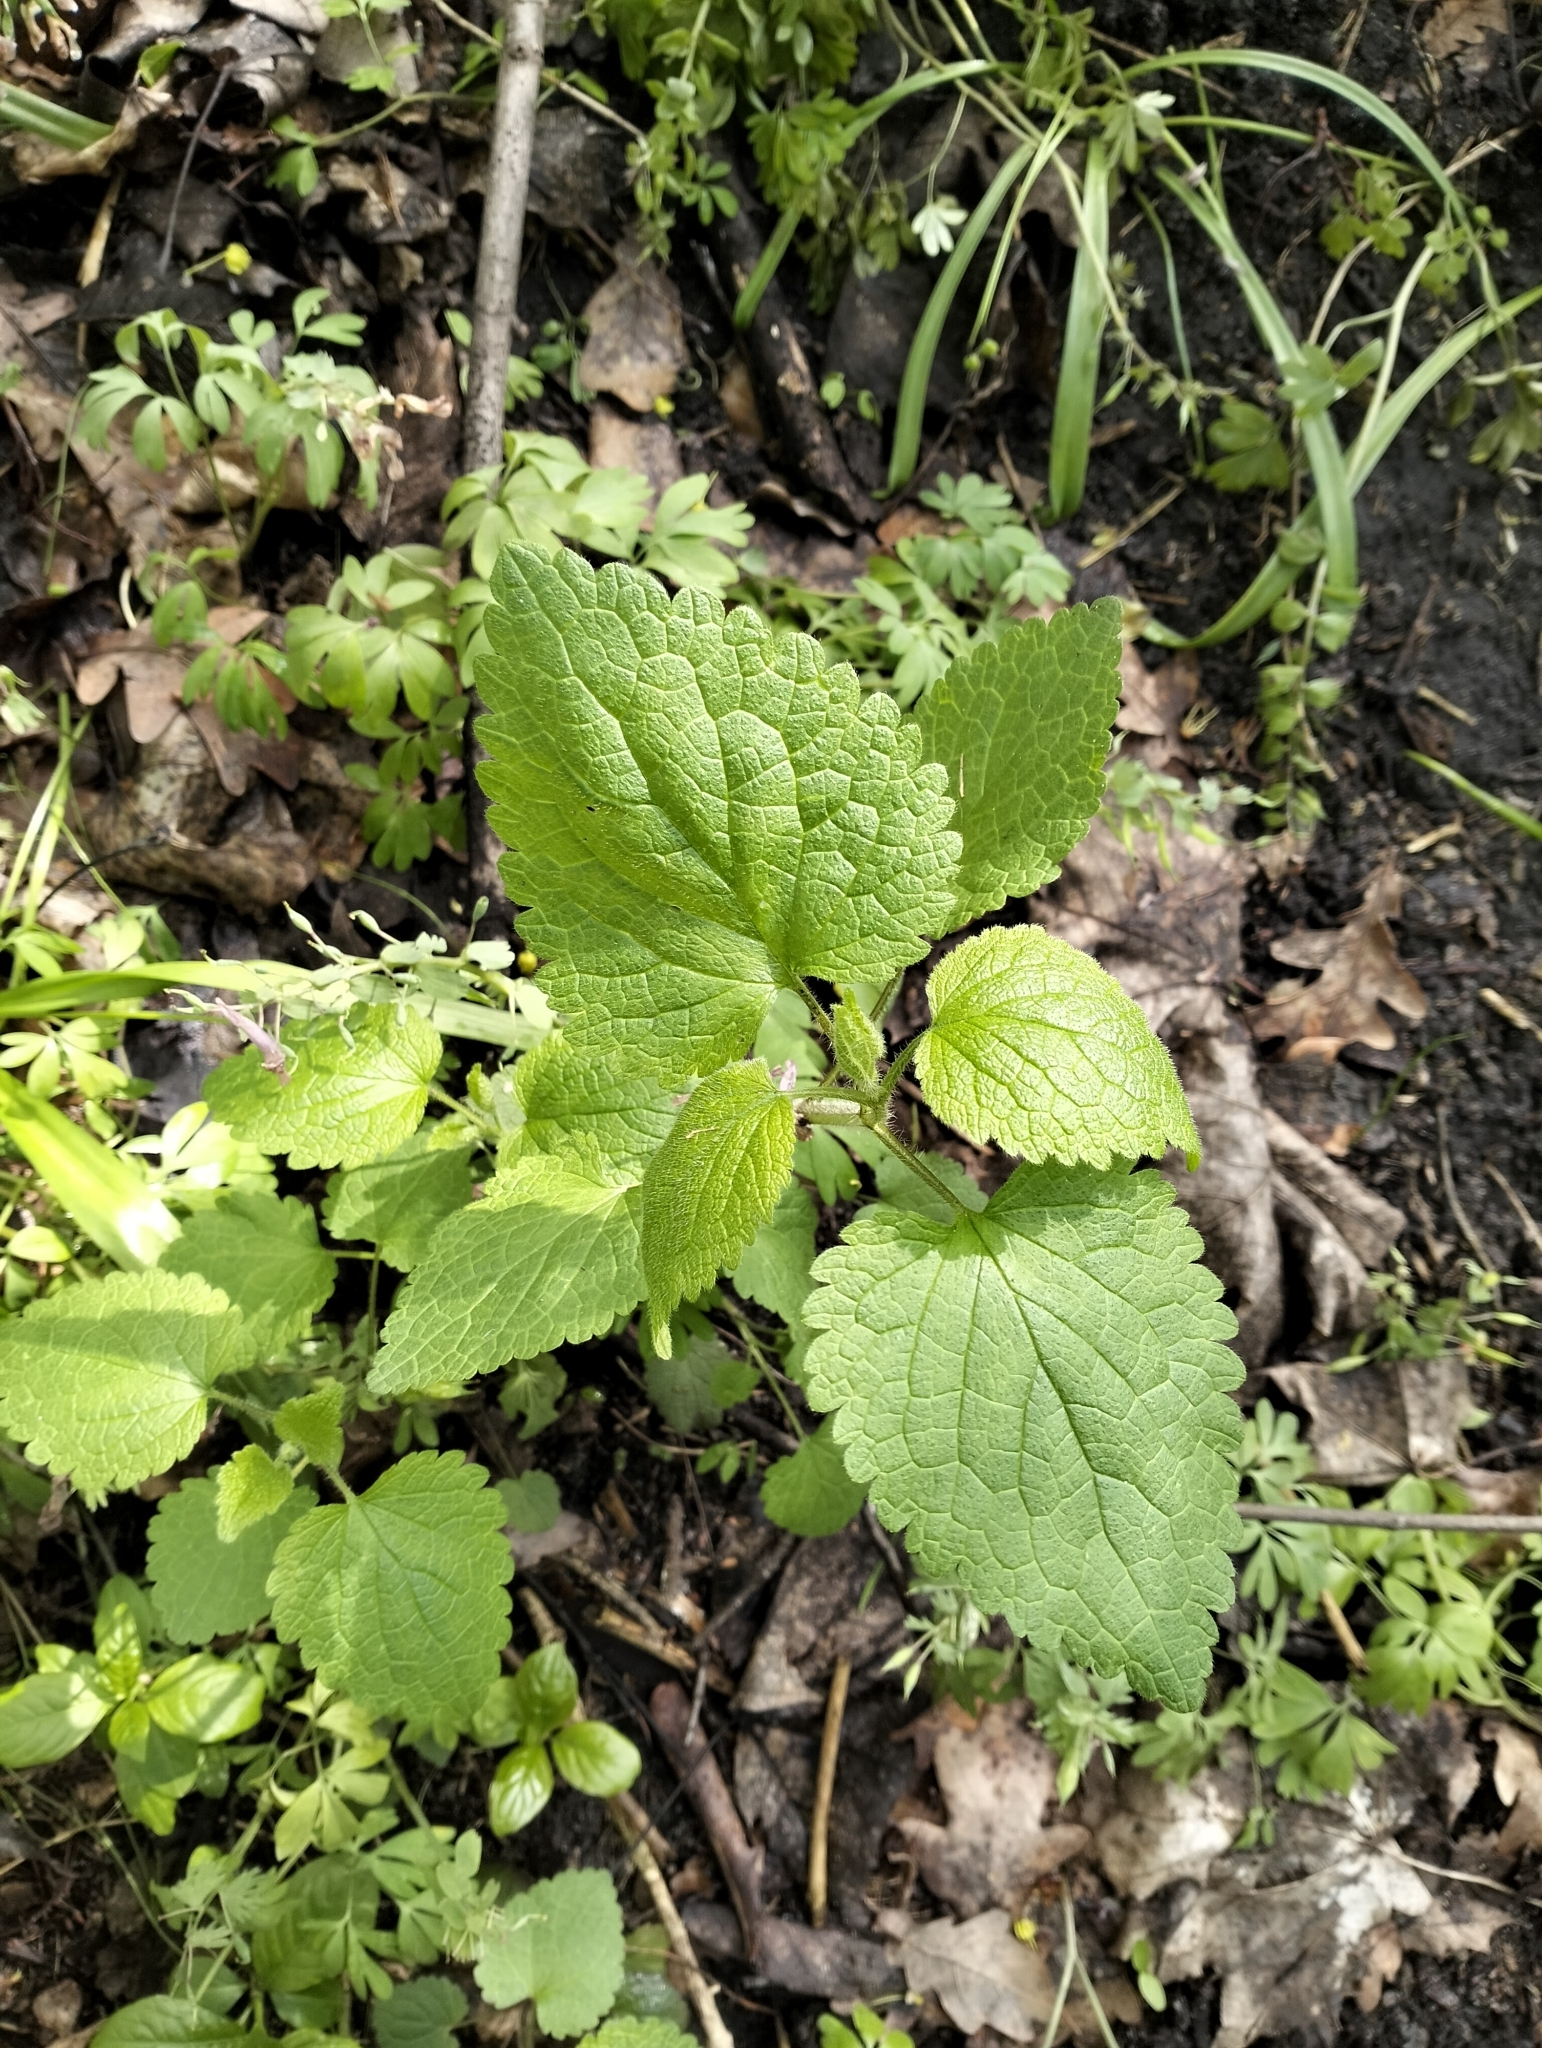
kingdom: Plantae
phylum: Tracheophyta
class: Magnoliopsida
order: Lamiales
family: Lamiaceae
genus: Stachys
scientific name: Stachys sylvatica
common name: Hedge woundwort
